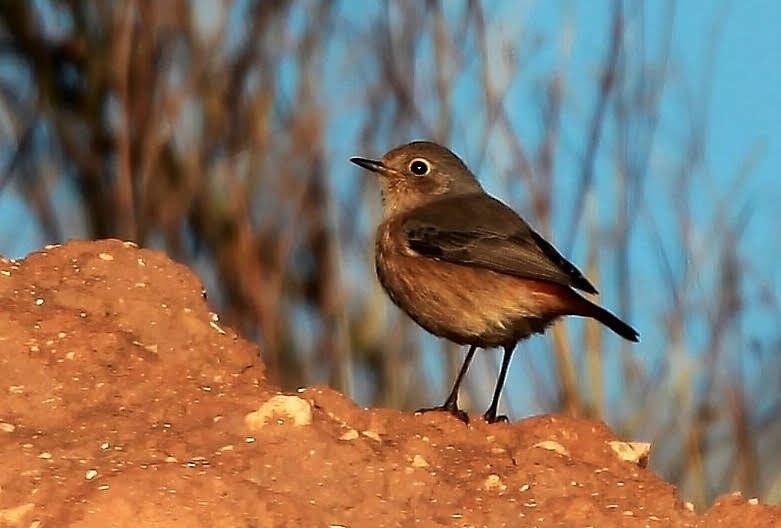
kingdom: Animalia
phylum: Chordata
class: Aves
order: Passeriformes
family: Muscicapidae
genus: Phoenicurus
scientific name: Phoenicurus moussieri
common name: Moussier's redstart
